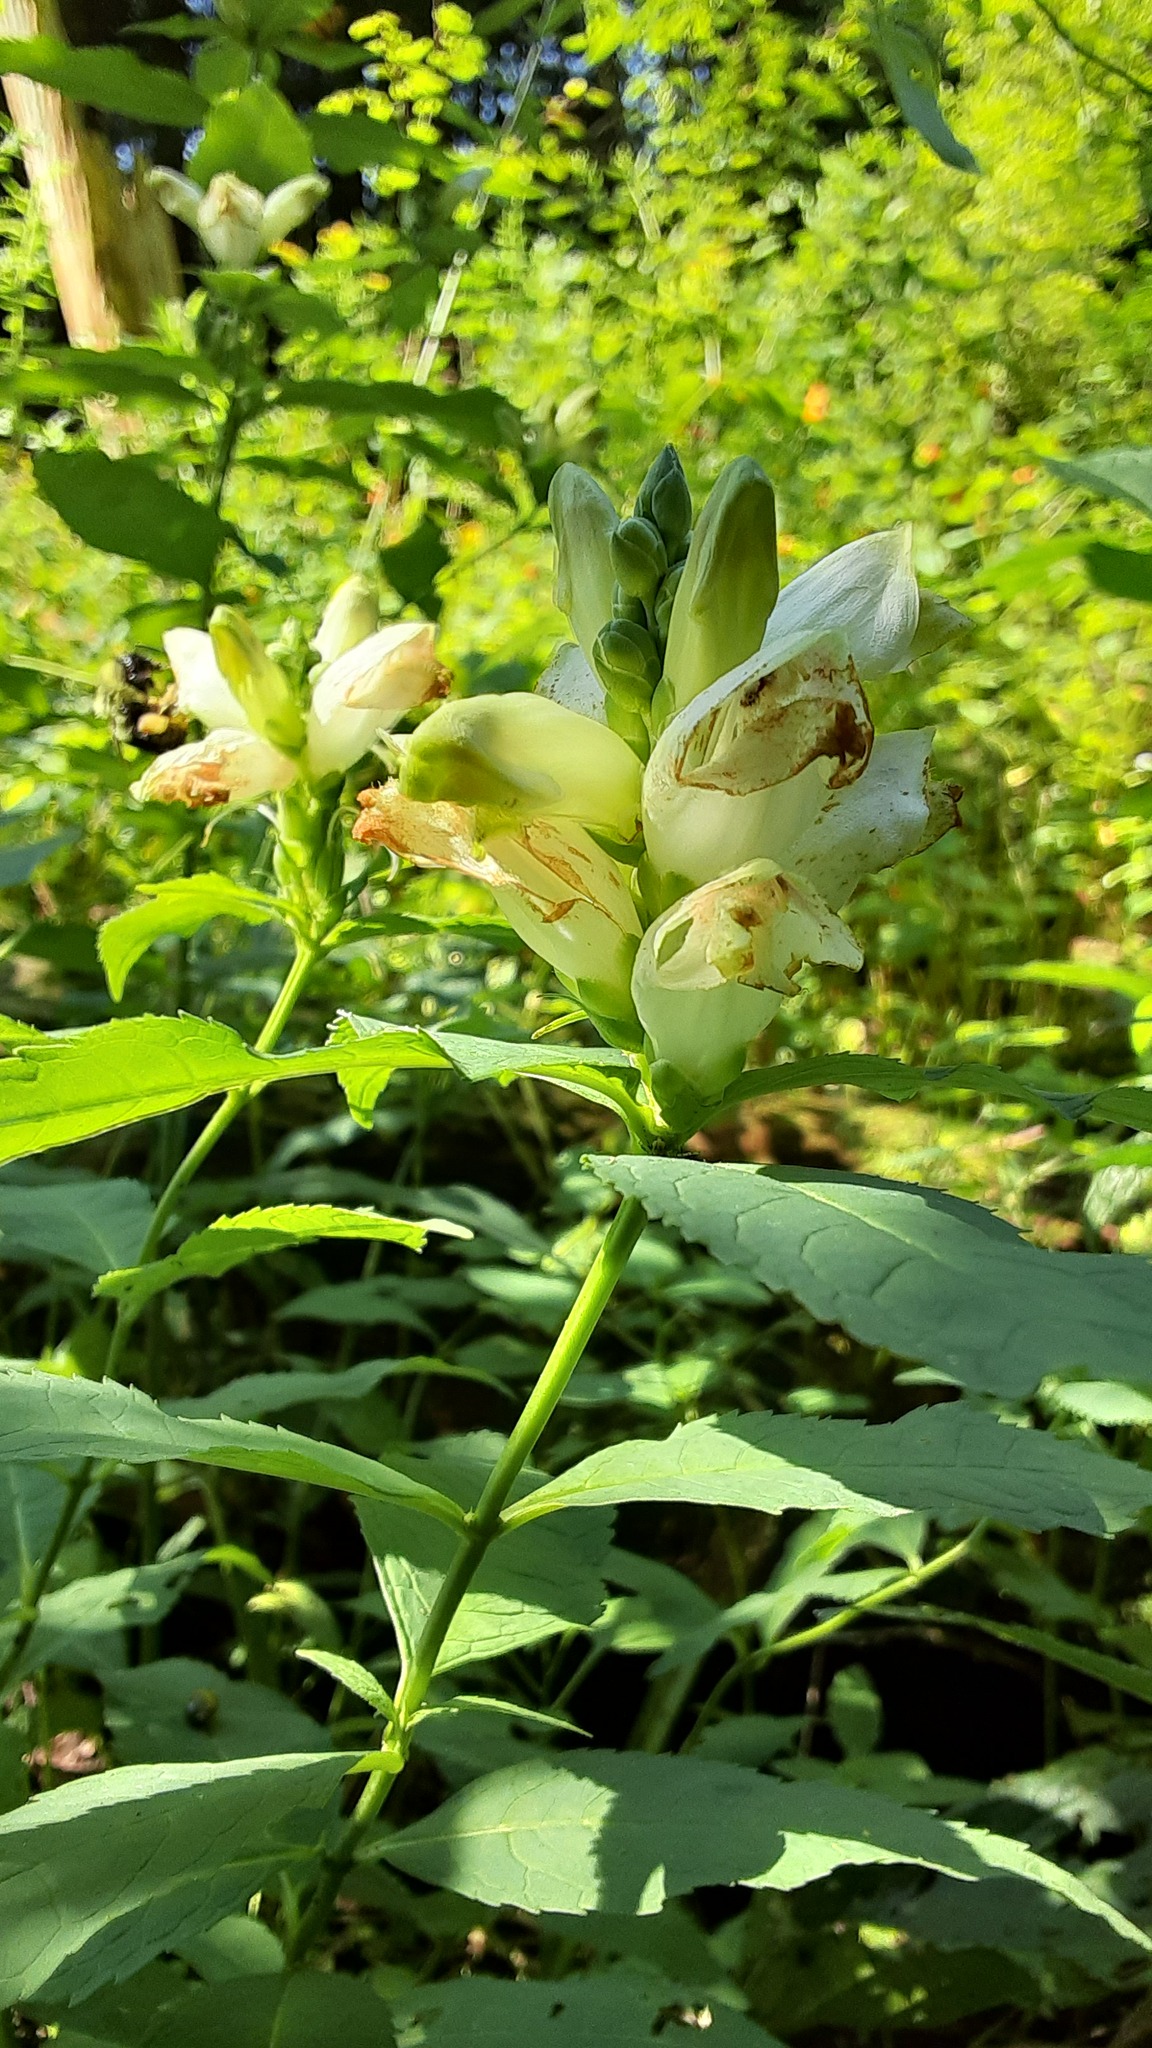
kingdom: Plantae
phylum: Tracheophyta
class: Magnoliopsida
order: Lamiales
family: Plantaginaceae
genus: Chelone
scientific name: Chelone glabra
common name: Snakehead
